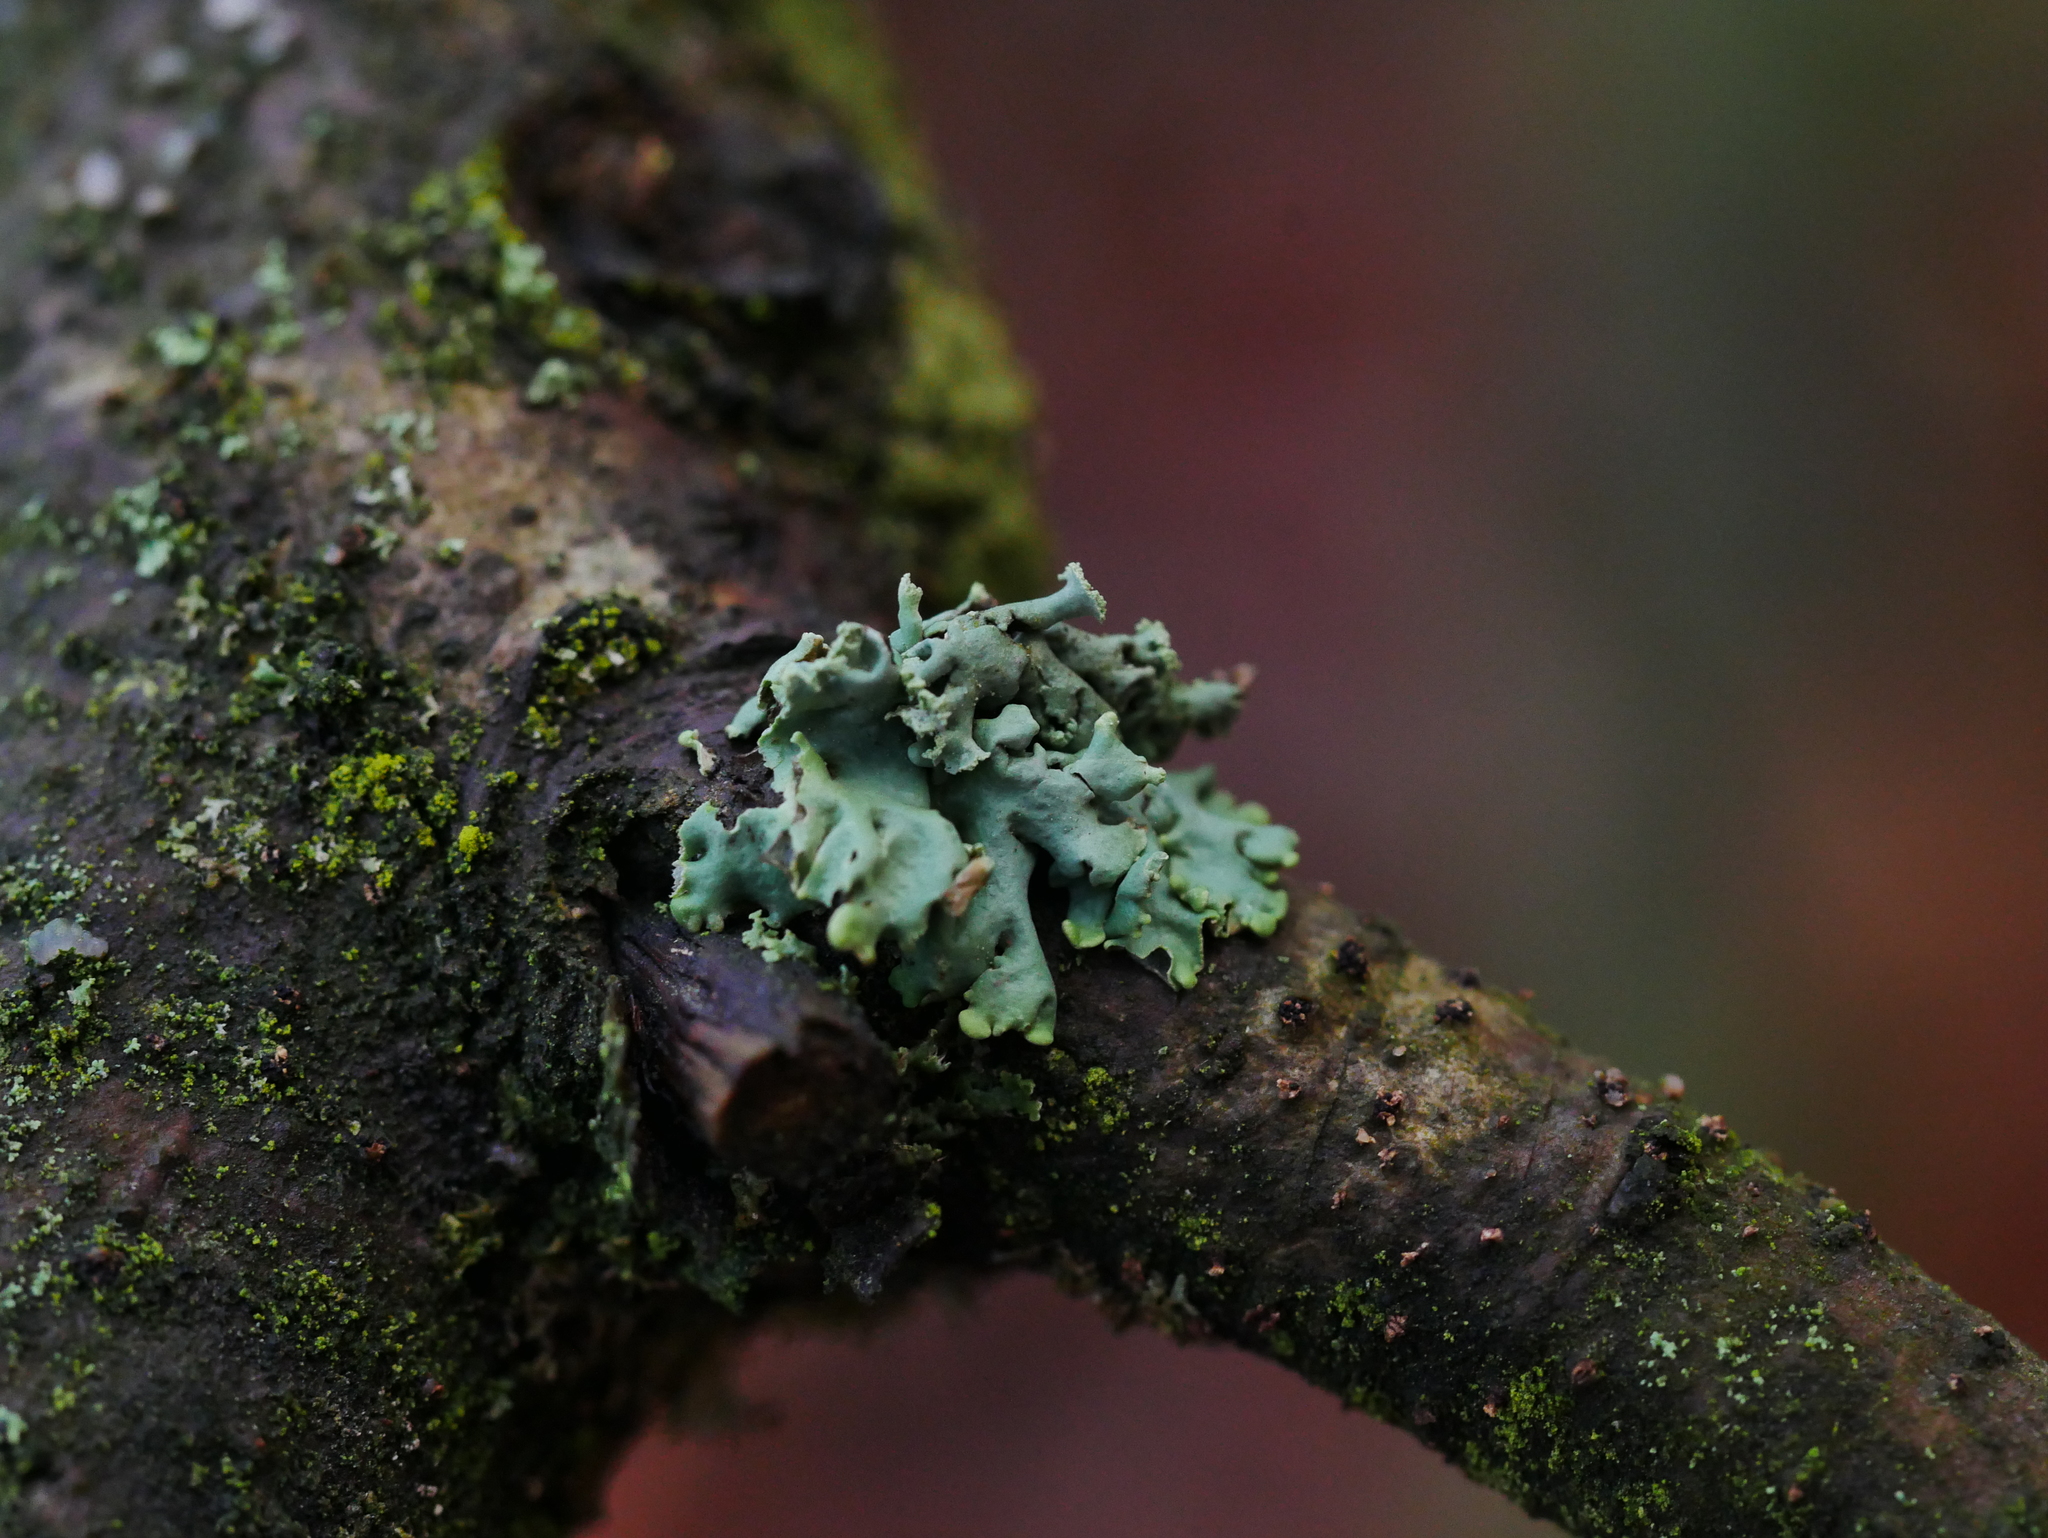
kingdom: Fungi
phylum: Ascomycota
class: Lecanoromycetes
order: Lecanorales
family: Parmeliaceae
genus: Hypogymnia
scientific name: Hypogymnia physodes
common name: Dark crottle
